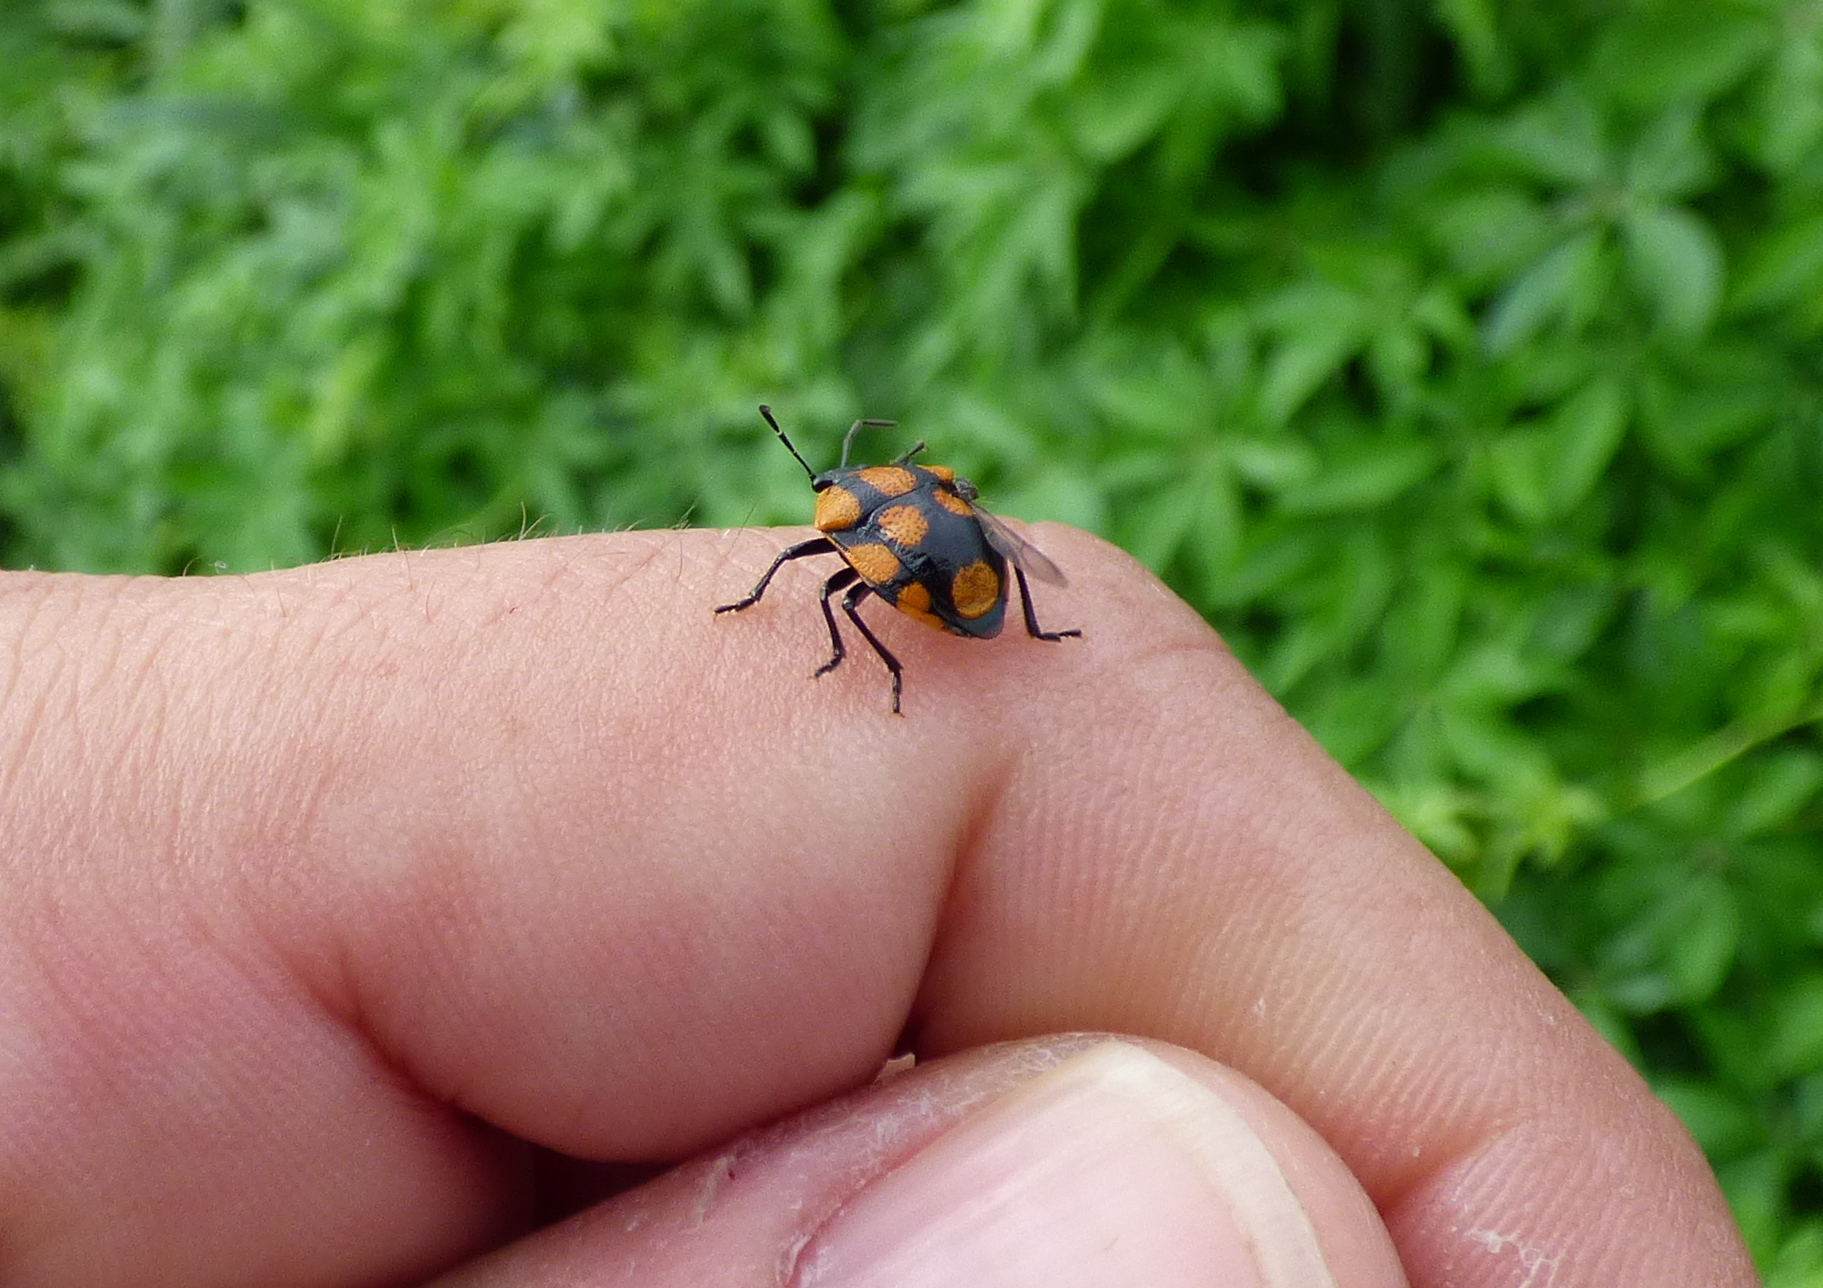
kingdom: Animalia
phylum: Arthropoda
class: Insecta
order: Hemiptera
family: Pentatomidae
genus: Stiretrus
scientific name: Stiretrus
